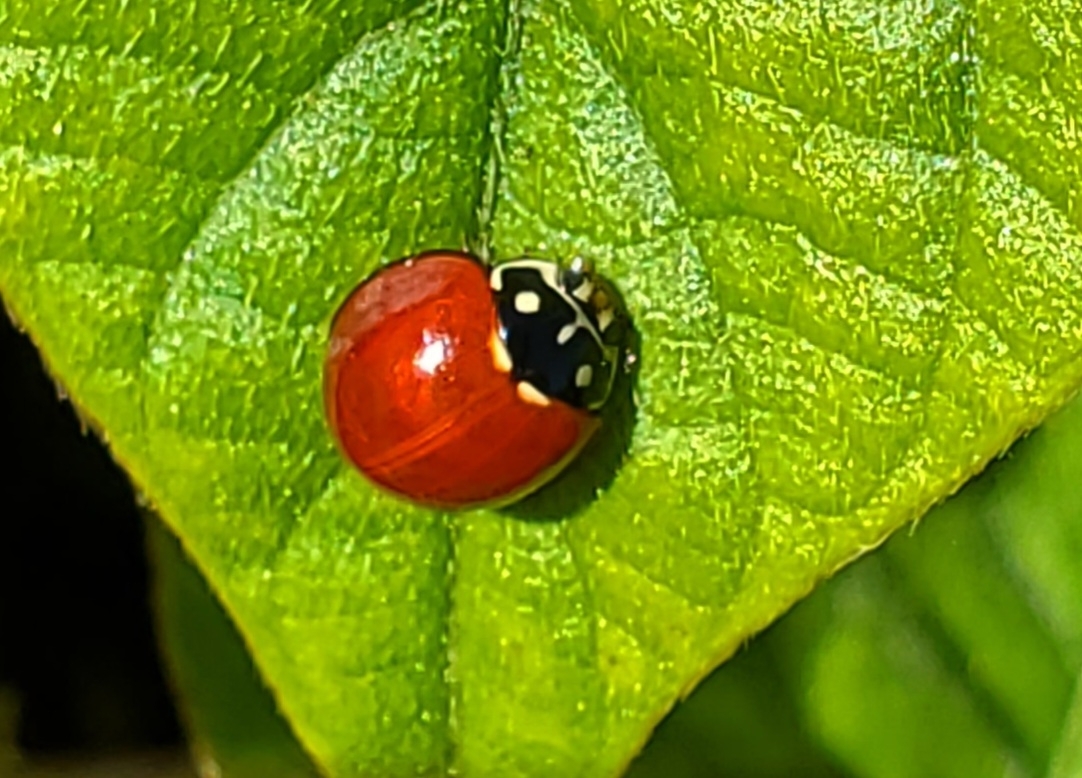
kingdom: Animalia
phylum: Arthropoda
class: Insecta
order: Coleoptera
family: Coccinellidae
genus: Cycloneda
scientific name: Cycloneda sanguinea
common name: Ladybird beetle
